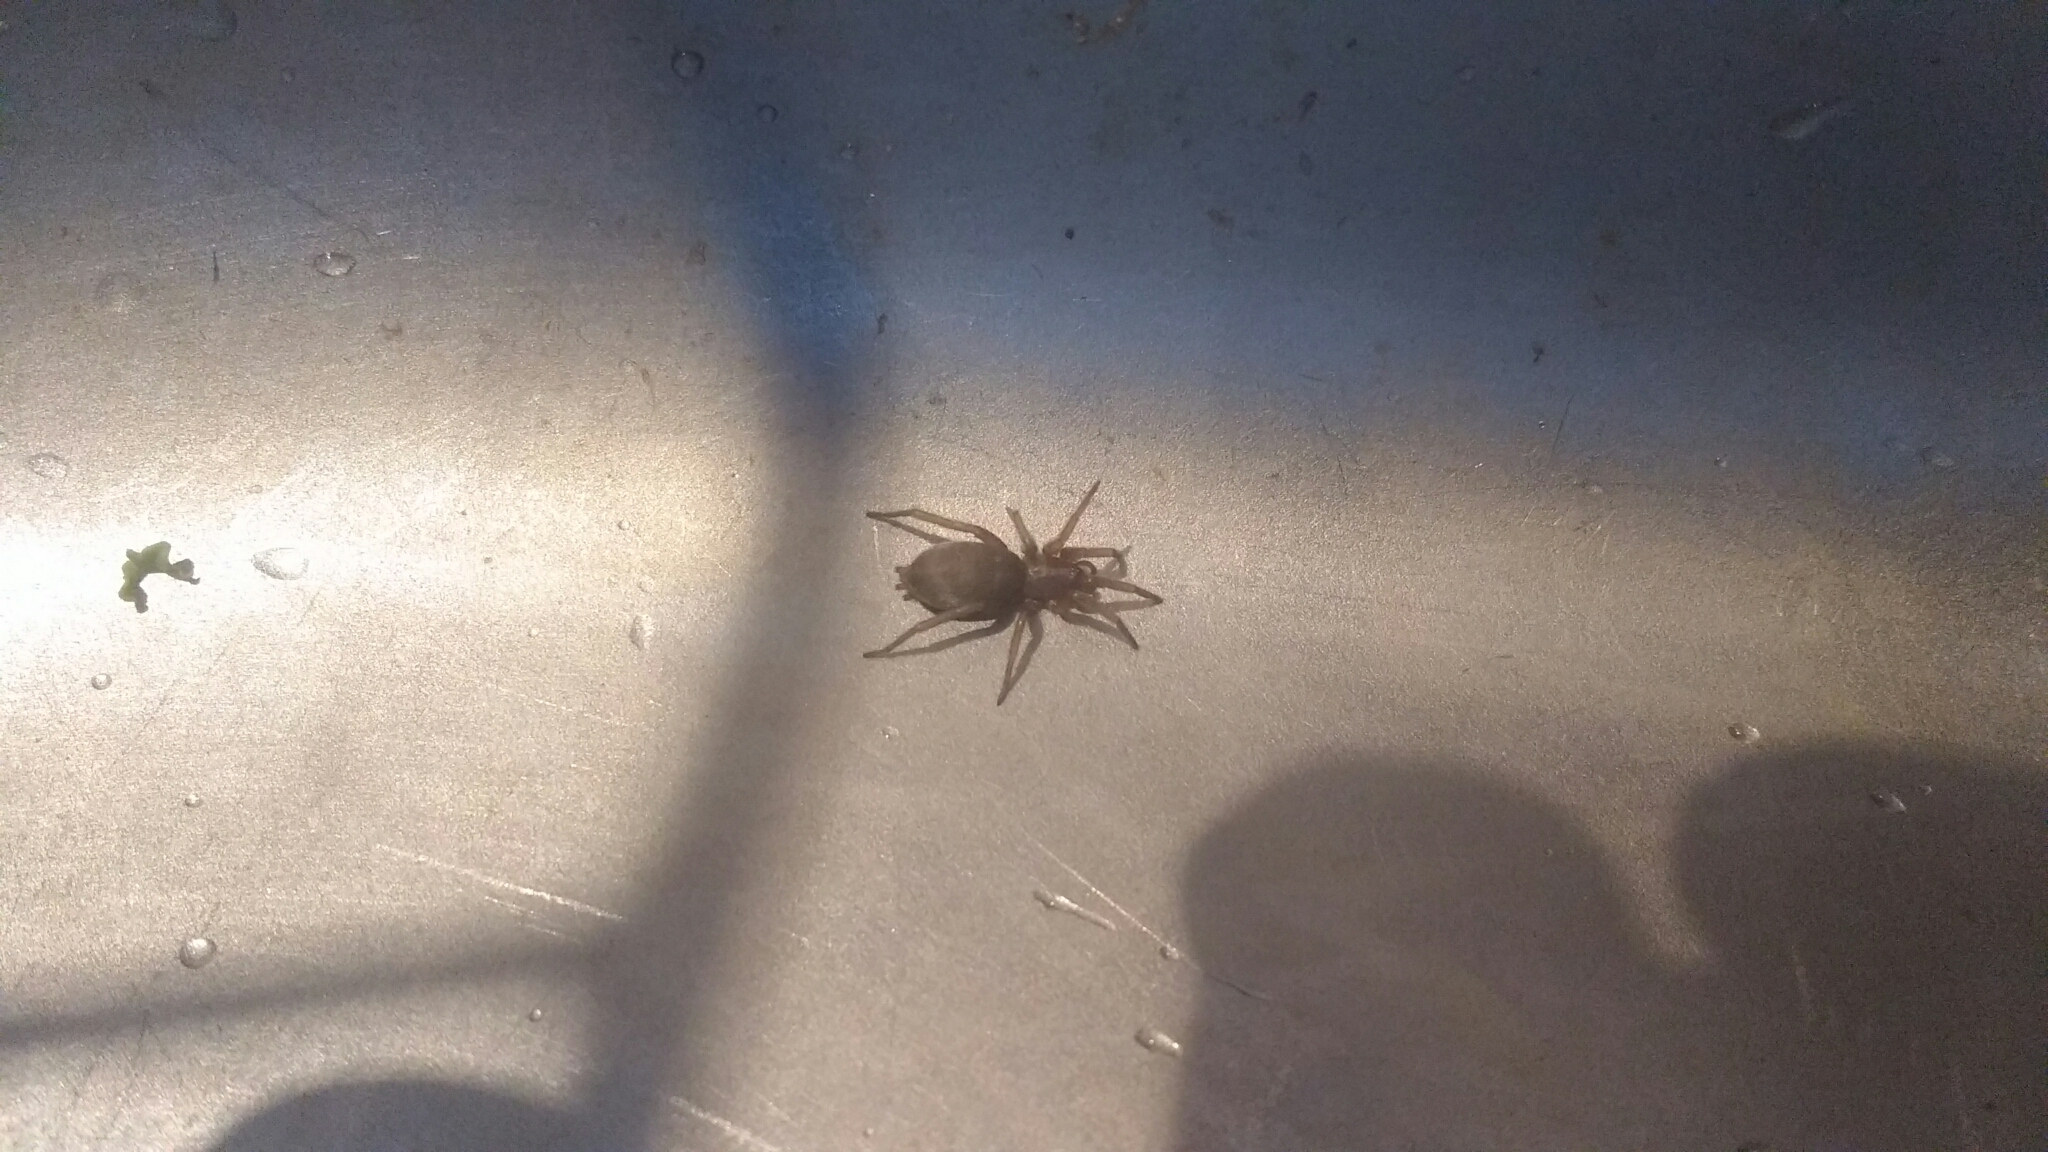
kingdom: Animalia
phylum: Arthropoda
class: Arachnida
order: Araneae
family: Gnaphosidae
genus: Scotophaeus
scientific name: Scotophaeus blackwalli
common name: Mouse spider
